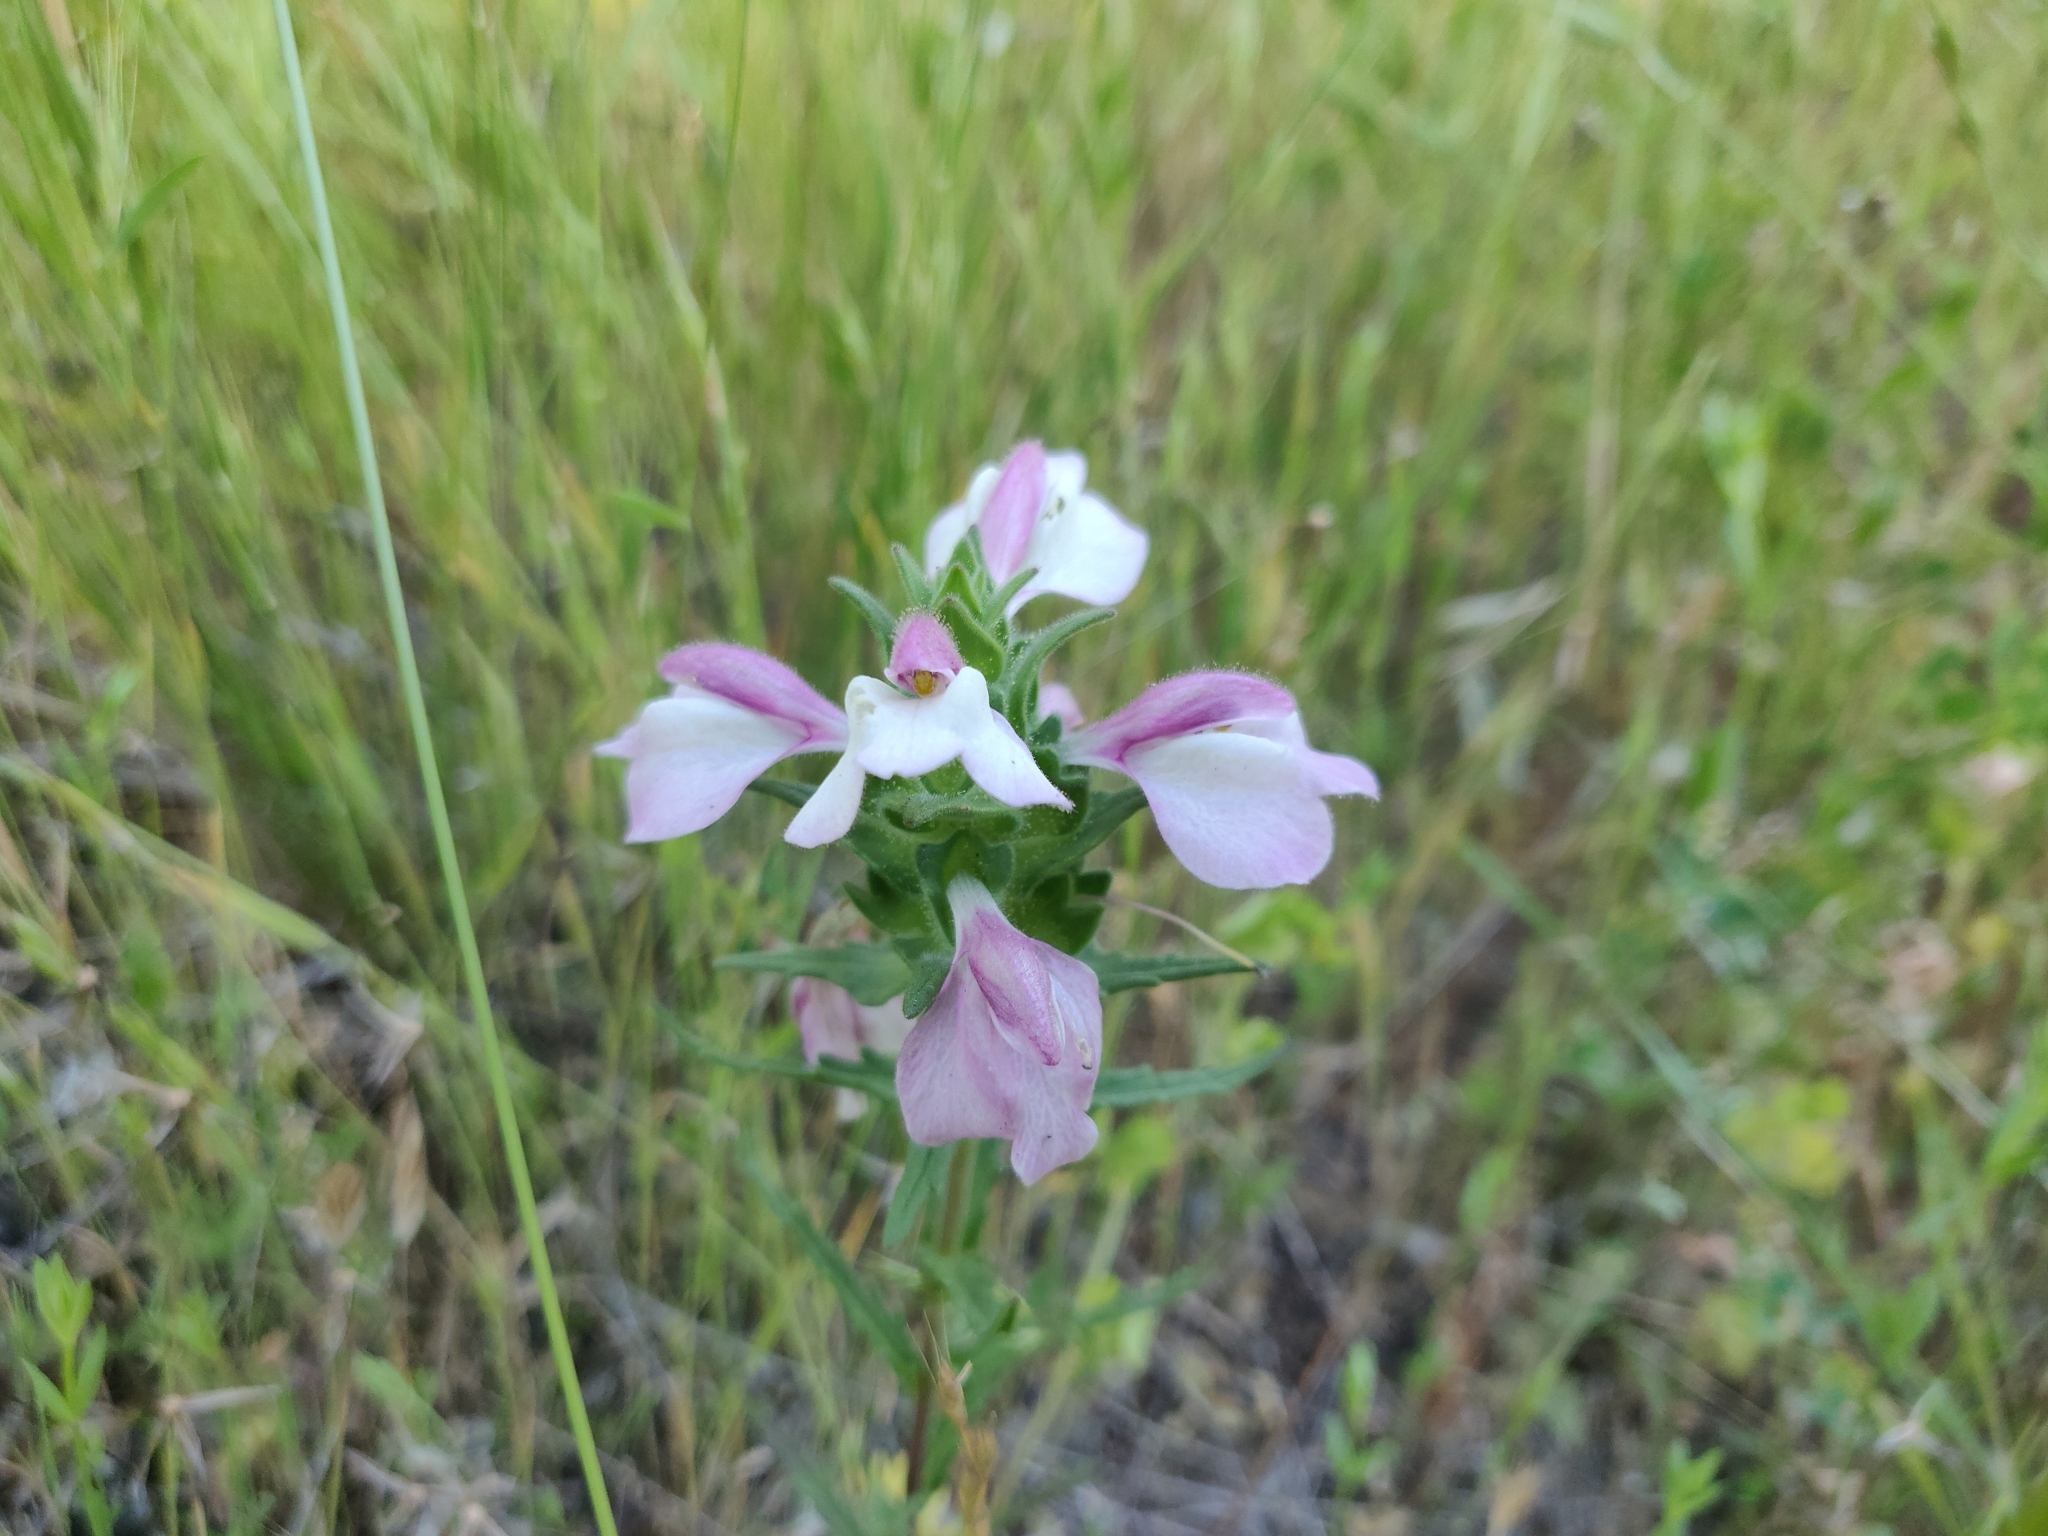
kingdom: Plantae
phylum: Tracheophyta
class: Magnoliopsida
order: Lamiales
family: Orobanchaceae
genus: Bellardia
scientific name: Bellardia trixago
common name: Mediterranean lineseed
